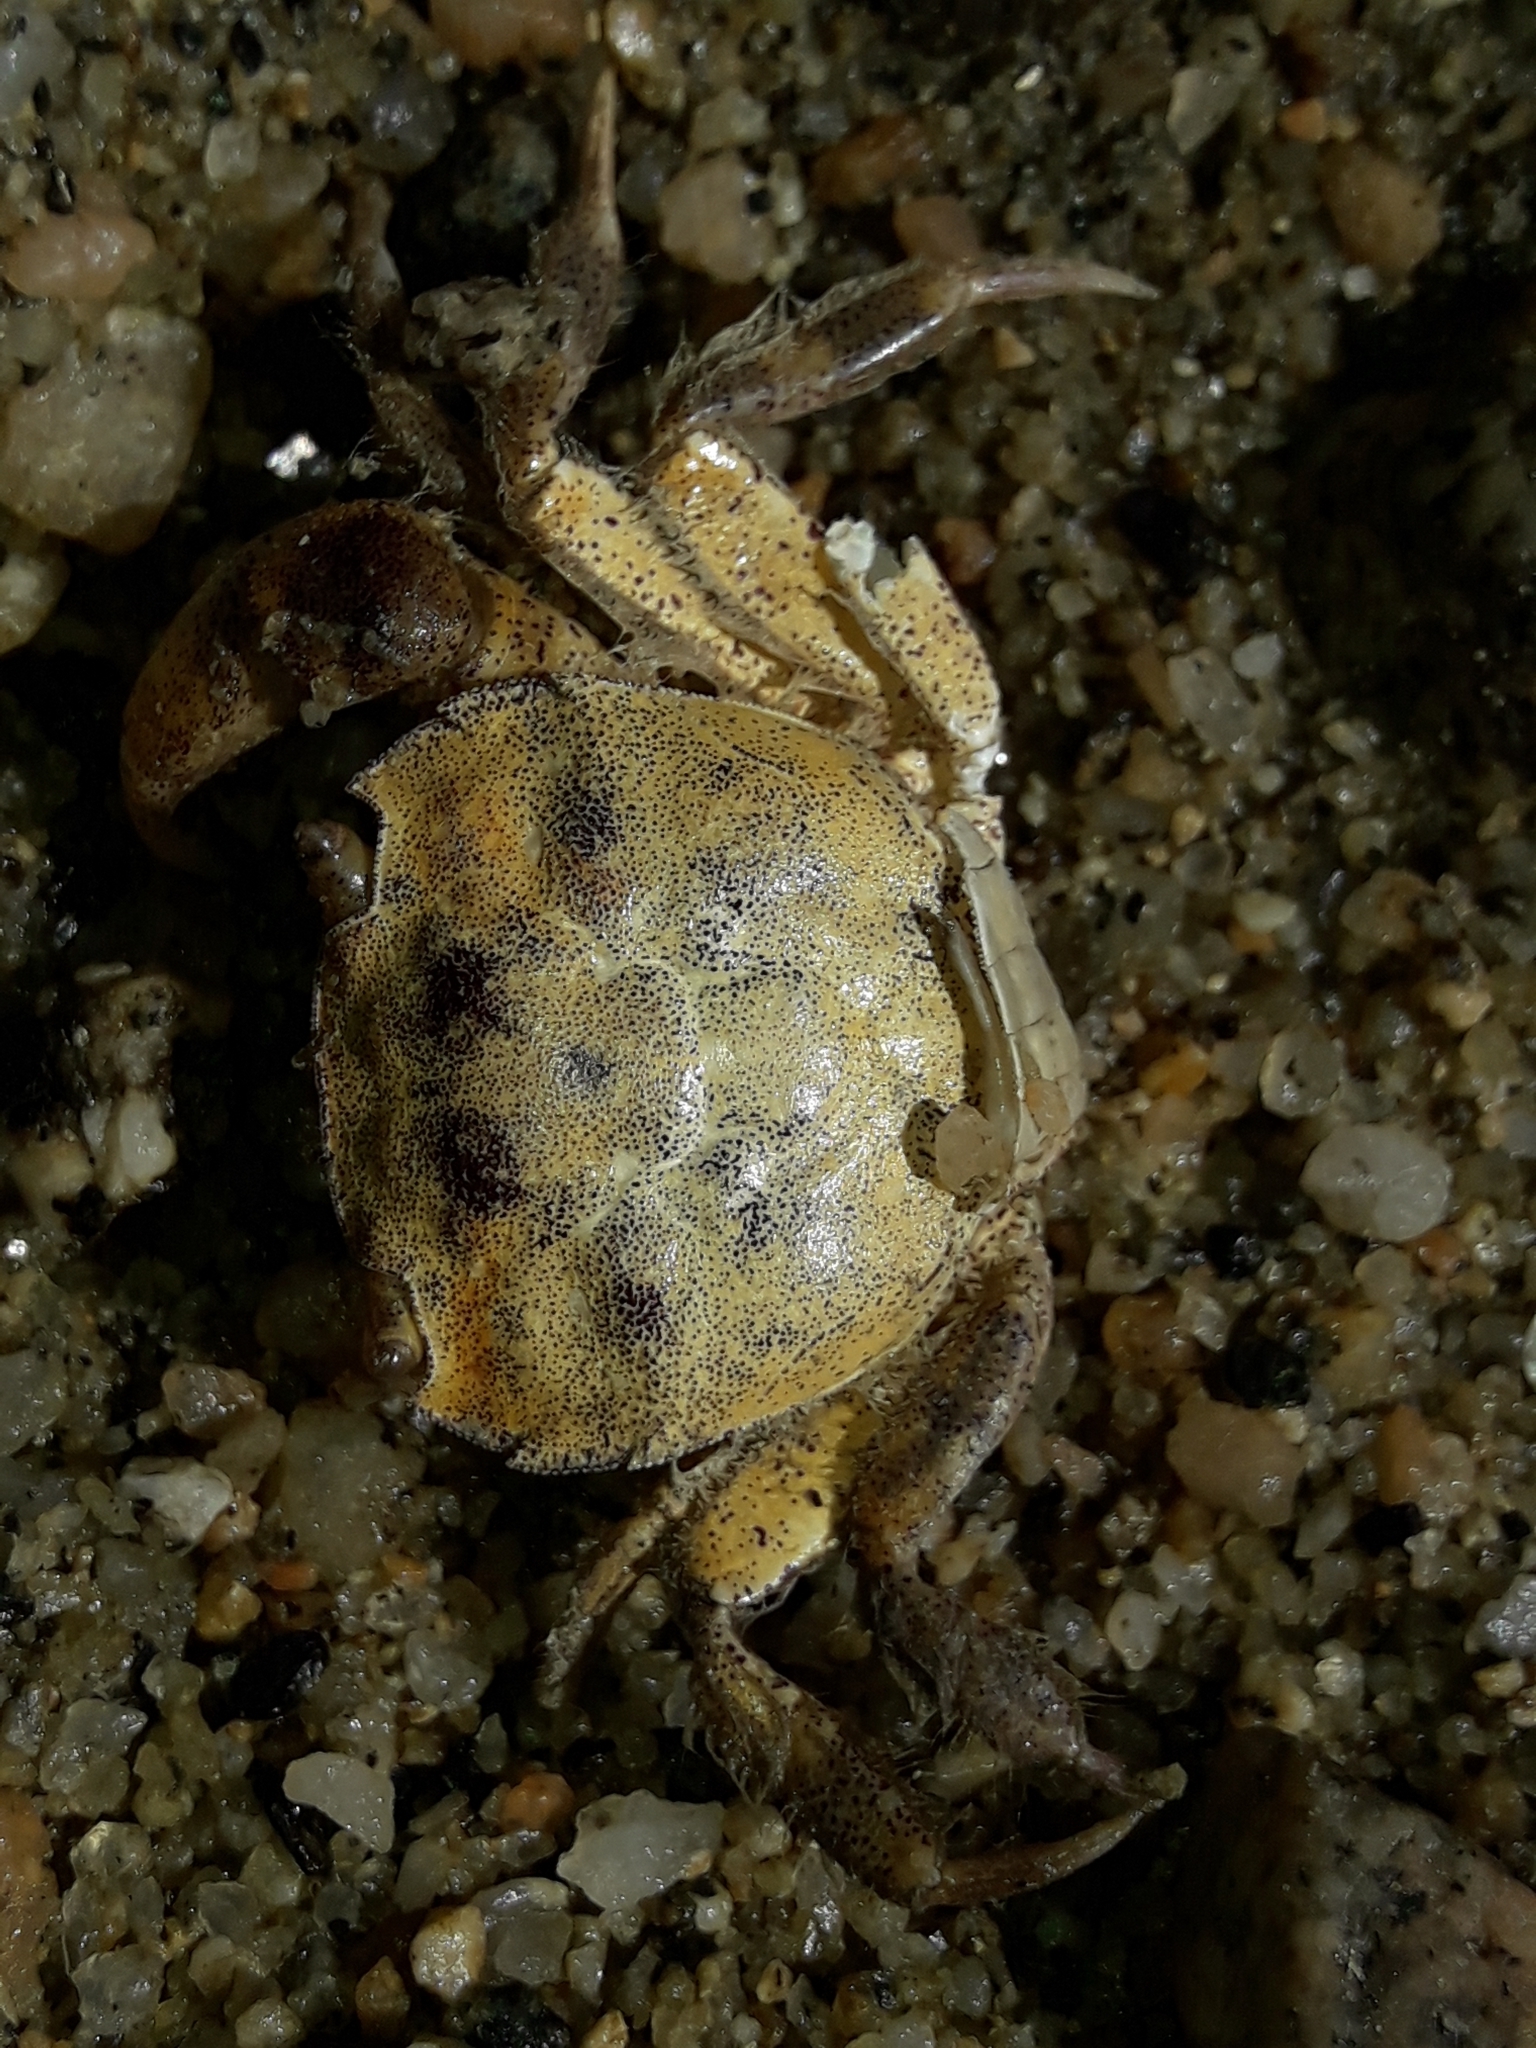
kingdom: Animalia
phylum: Arthropoda
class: Malacostraca
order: Decapoda
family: Varunidae
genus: Hemigrapsus
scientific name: Hemigrapsus crenulatus
